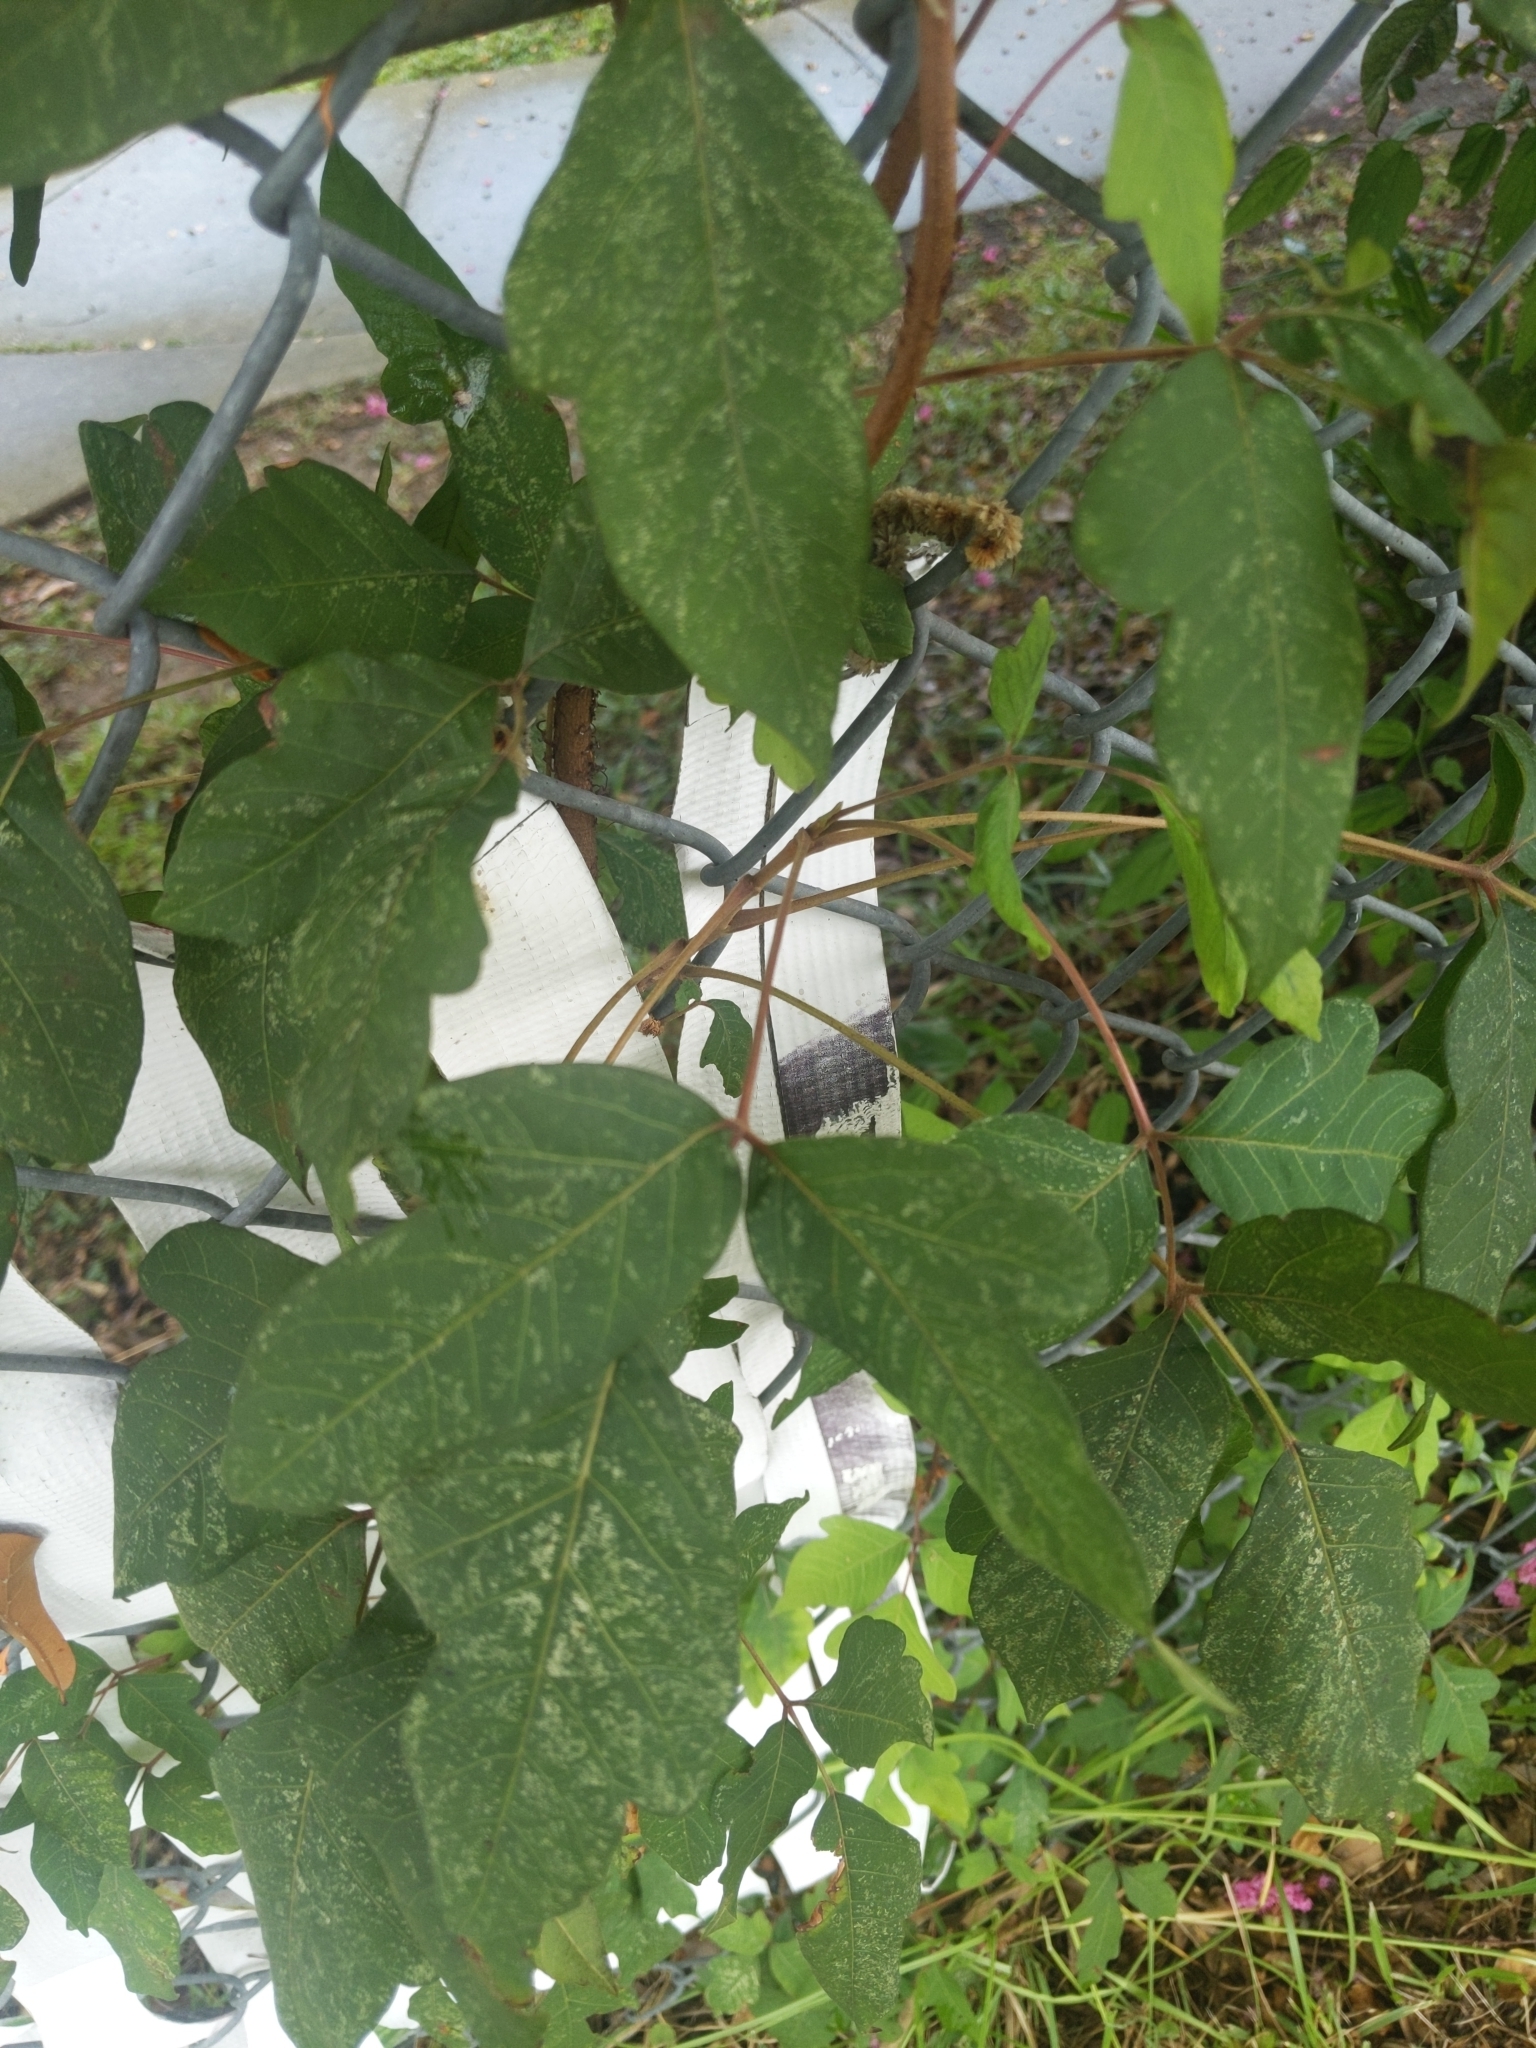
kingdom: Plantae
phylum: Tracheophyta
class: Magnoliopsida
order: Sapindales
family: Anacardiaceae
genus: Toxicodendron
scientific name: Toxicodendron radicans
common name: Poison ivy
